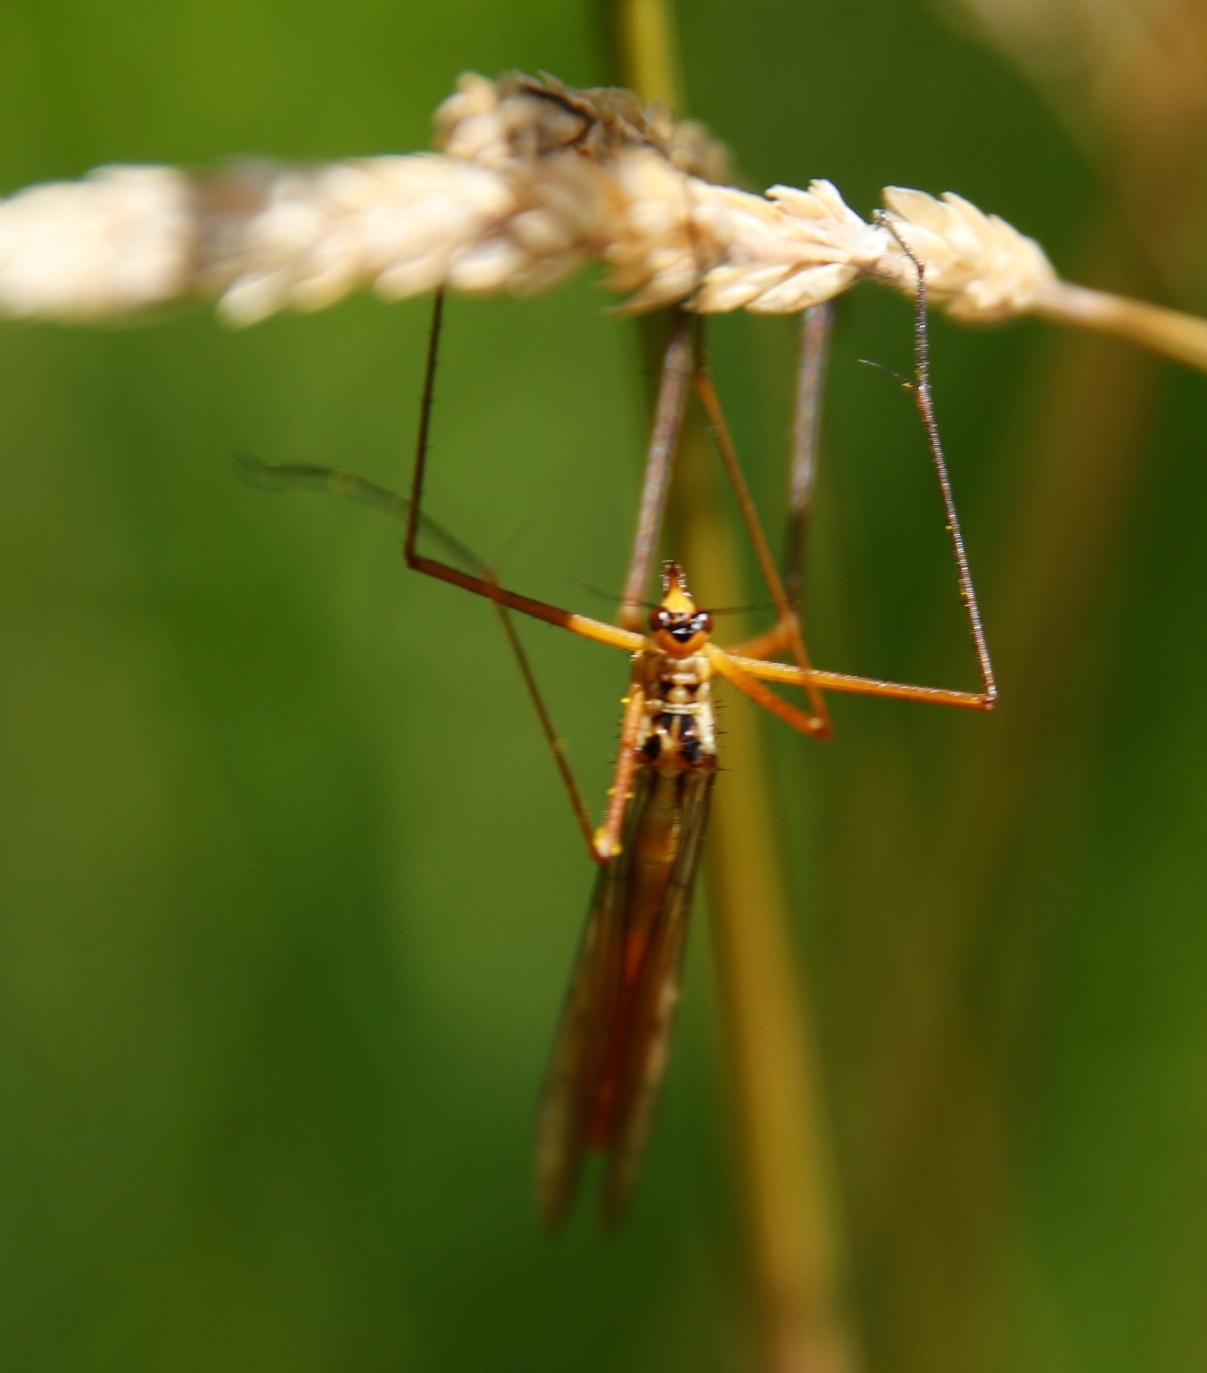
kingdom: Animalia
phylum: Arthropoda
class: Insecta
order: Mecoptera
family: Bittacidae
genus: Bittacus
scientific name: Bittacus kimminsi
